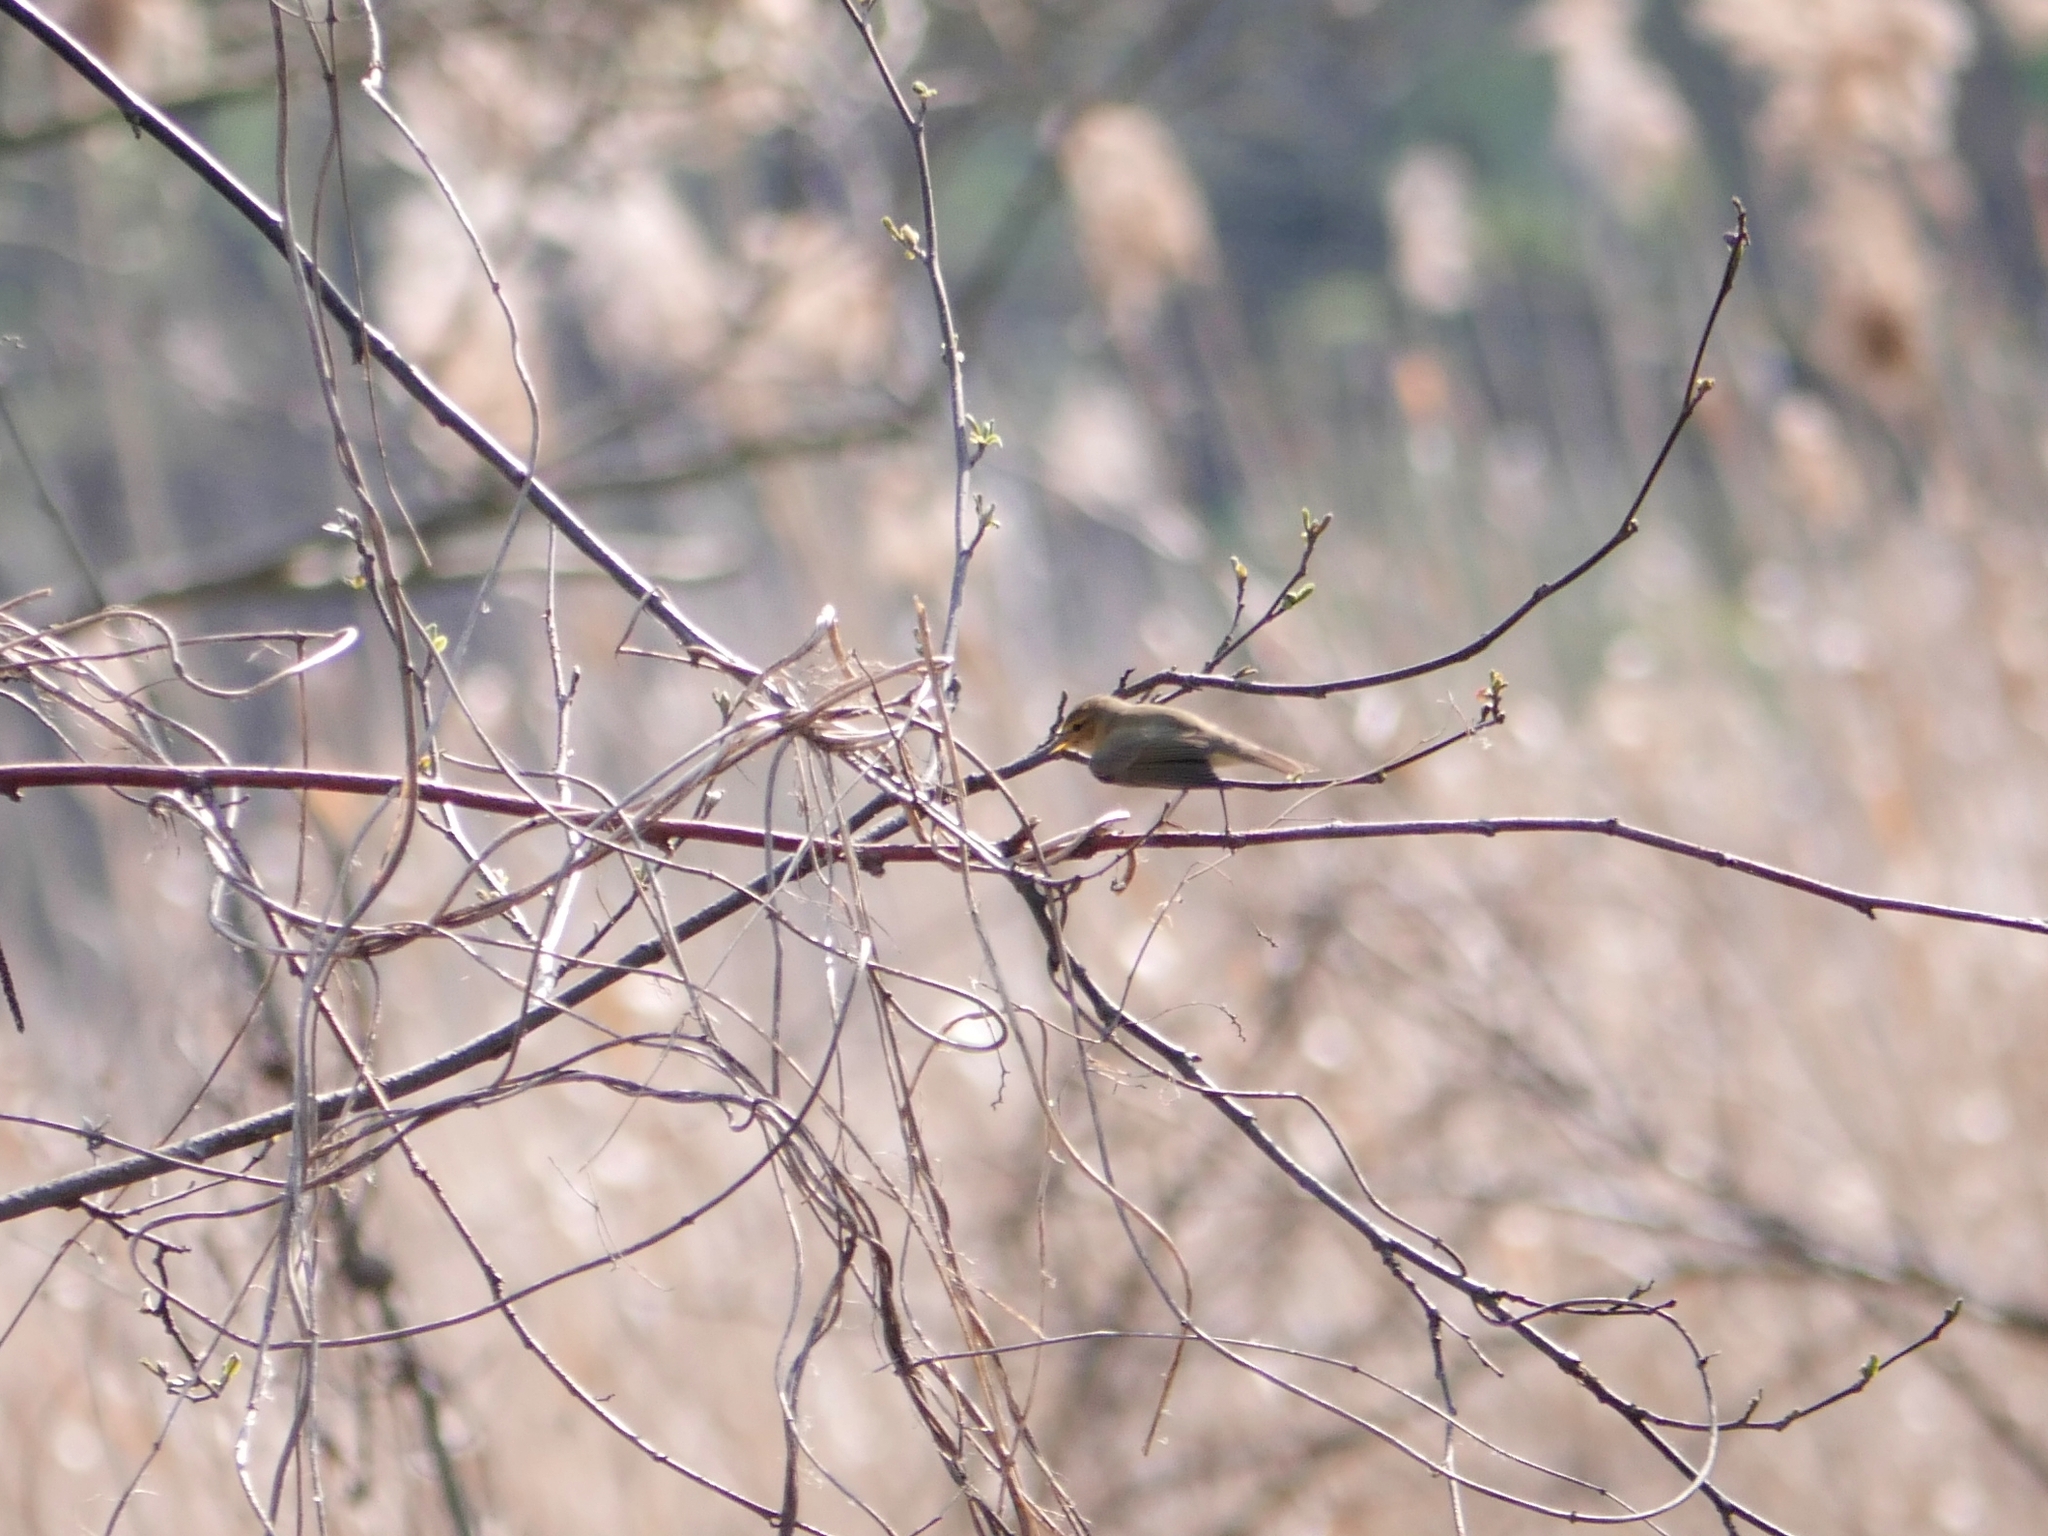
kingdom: Animalia
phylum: Chordata
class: Aves
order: Passeriformes
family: Phylloscopidae
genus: Phylloscopus
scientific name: Phylloscopus collybita
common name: Common chiffchaff
